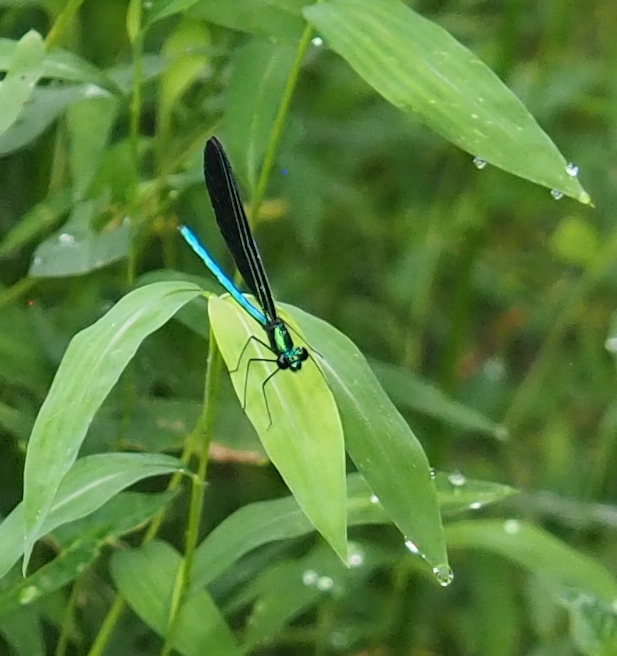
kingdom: Animalia
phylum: Arthropoda
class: Insecta
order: Odonata
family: Calopterygidae
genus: Calopteryx
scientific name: Calopteryx maculata
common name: Ebony jewelwing
